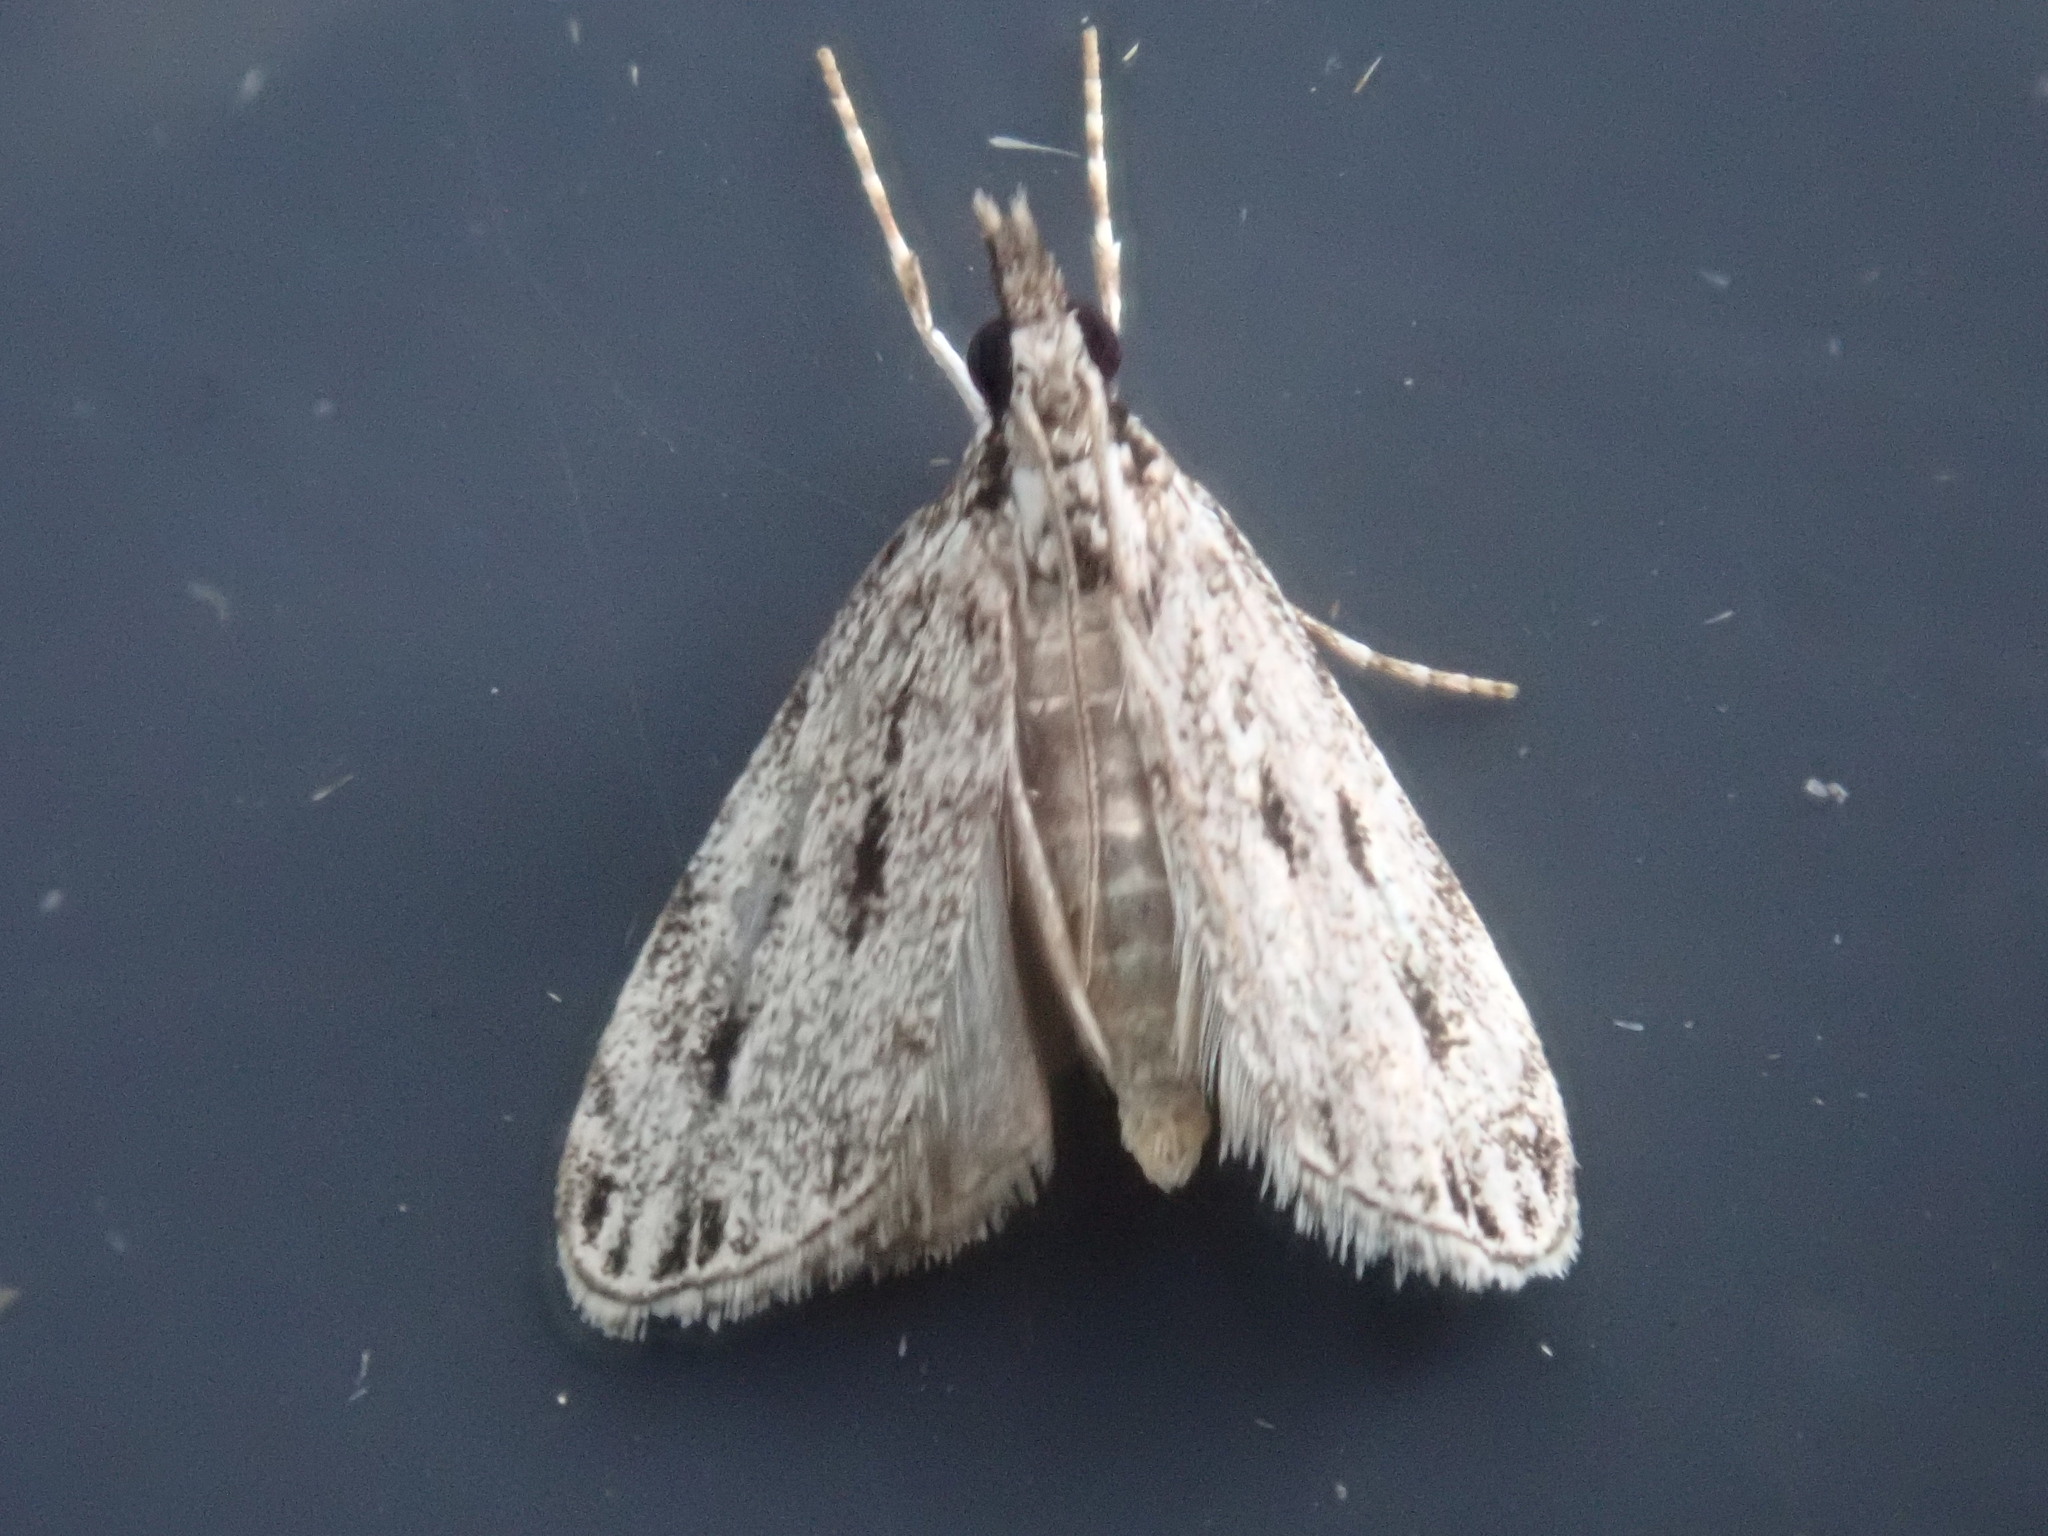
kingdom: Animalia
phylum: Arthropoda
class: Insecta
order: Lepidoptera
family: Crambidae
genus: Eudonia
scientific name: Eudonia strigalis
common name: Striped eudonia moth
